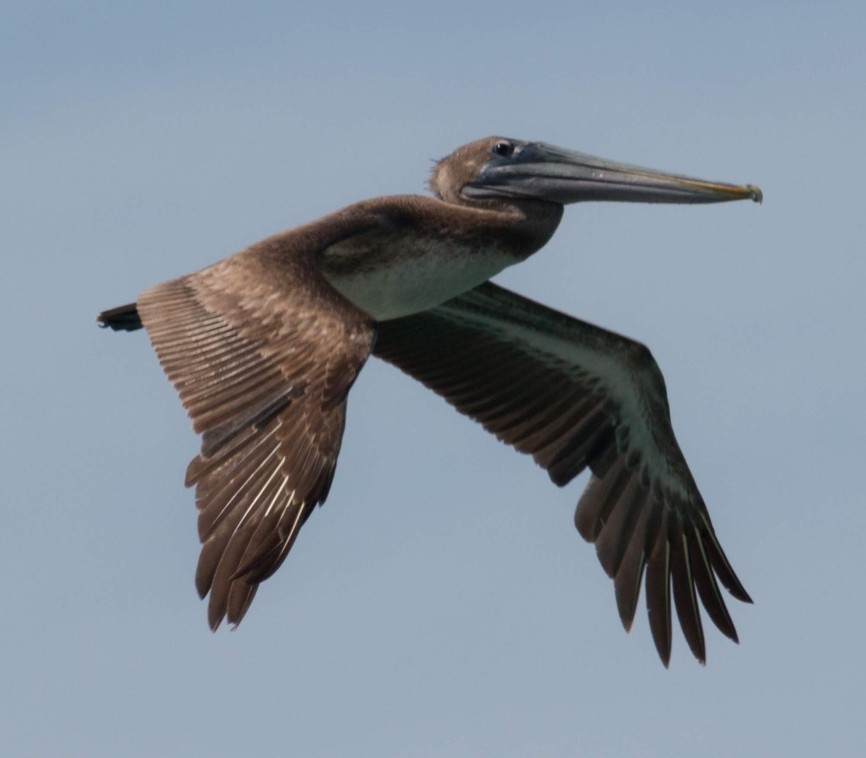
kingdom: Animalia
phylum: Chordata
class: Aves
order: Pelecaniformes
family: Pelecanidae
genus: Pelecanus
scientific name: Pelecanus occidentalis
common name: Brown pelican
